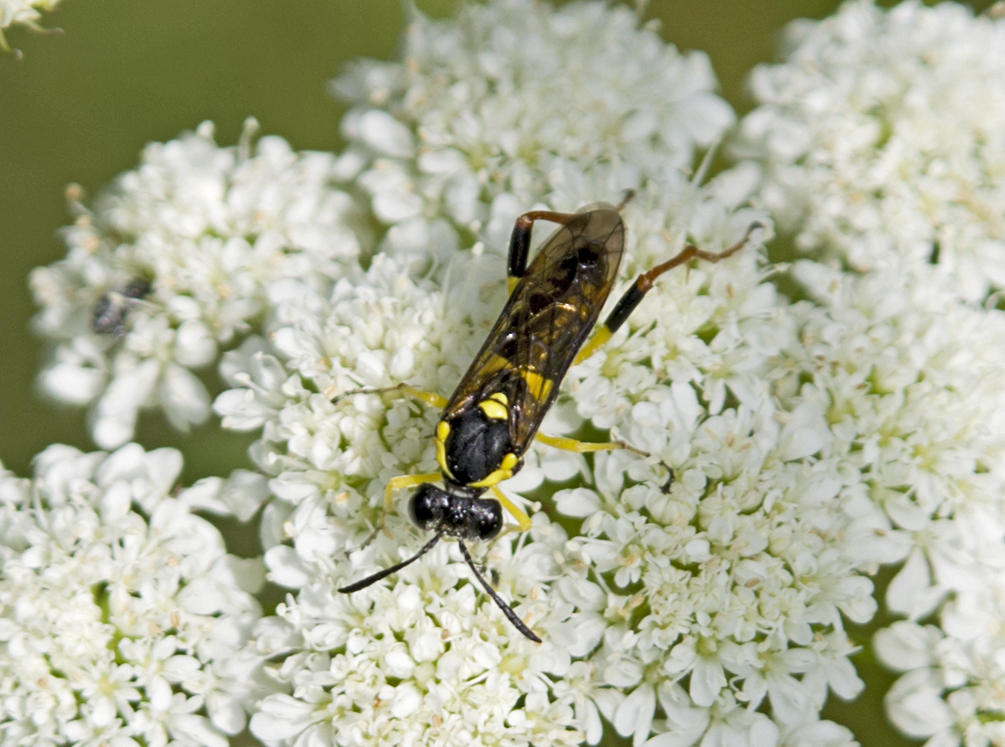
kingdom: Animalia
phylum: Arthropoda
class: Insecta
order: Hymenoptera
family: Tenthredinidae
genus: Macrophya
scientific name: Macrophya postica
